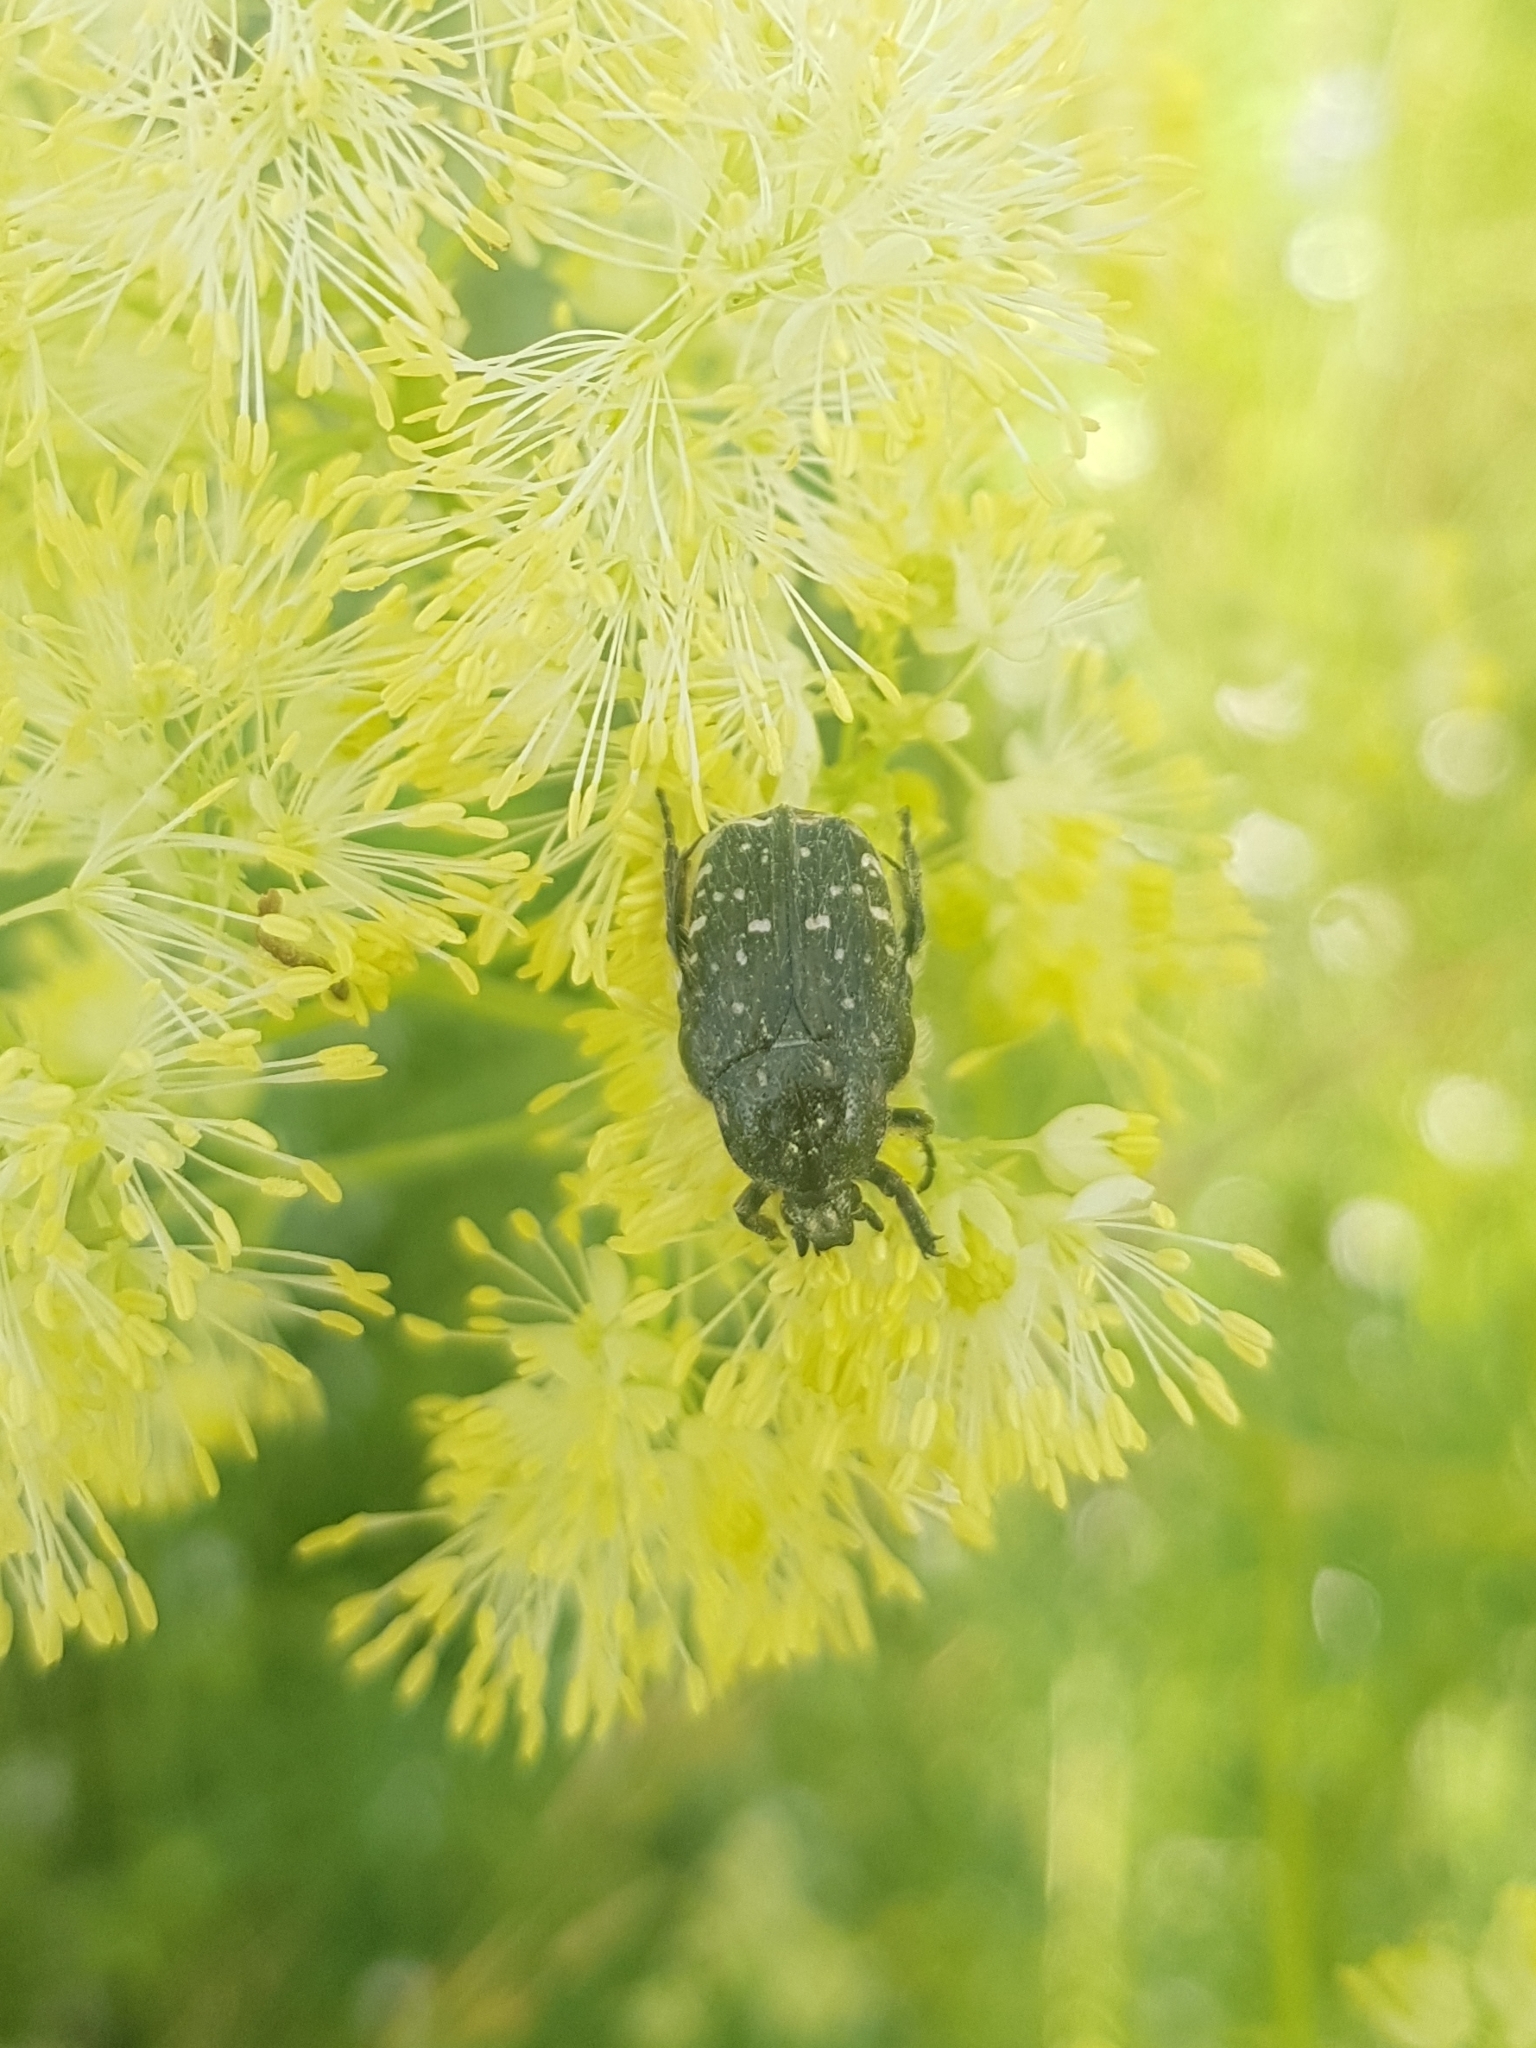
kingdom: Animalia
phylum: Arthropoda
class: Insecta
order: Coleoptera
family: Scarabaeidae
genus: Oxythyrea
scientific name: Oxythyrea funesta
